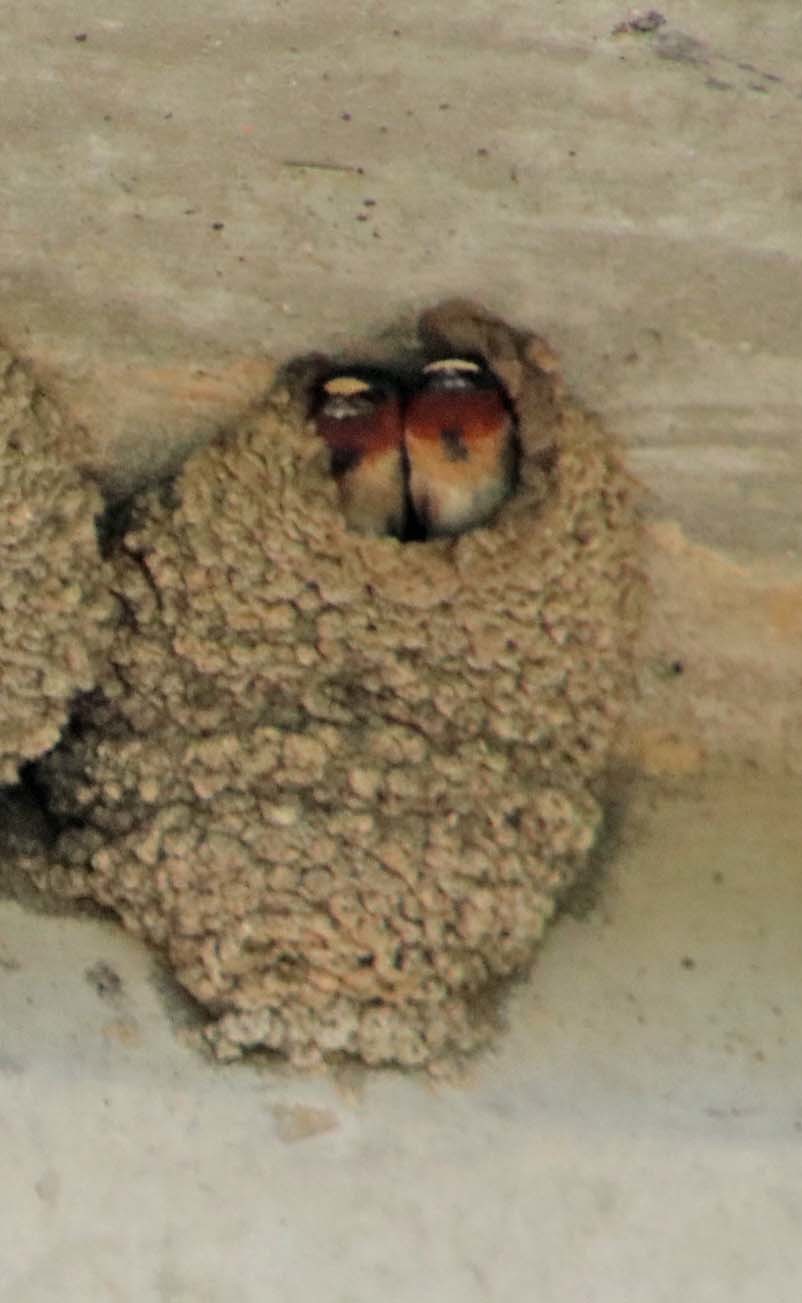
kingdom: Animalia
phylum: Chordata
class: Aves
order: Passeriformes
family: Hirundinidae
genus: Petrochelidon
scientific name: Petrochelidon pyrrhonota
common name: American cliff swallow
